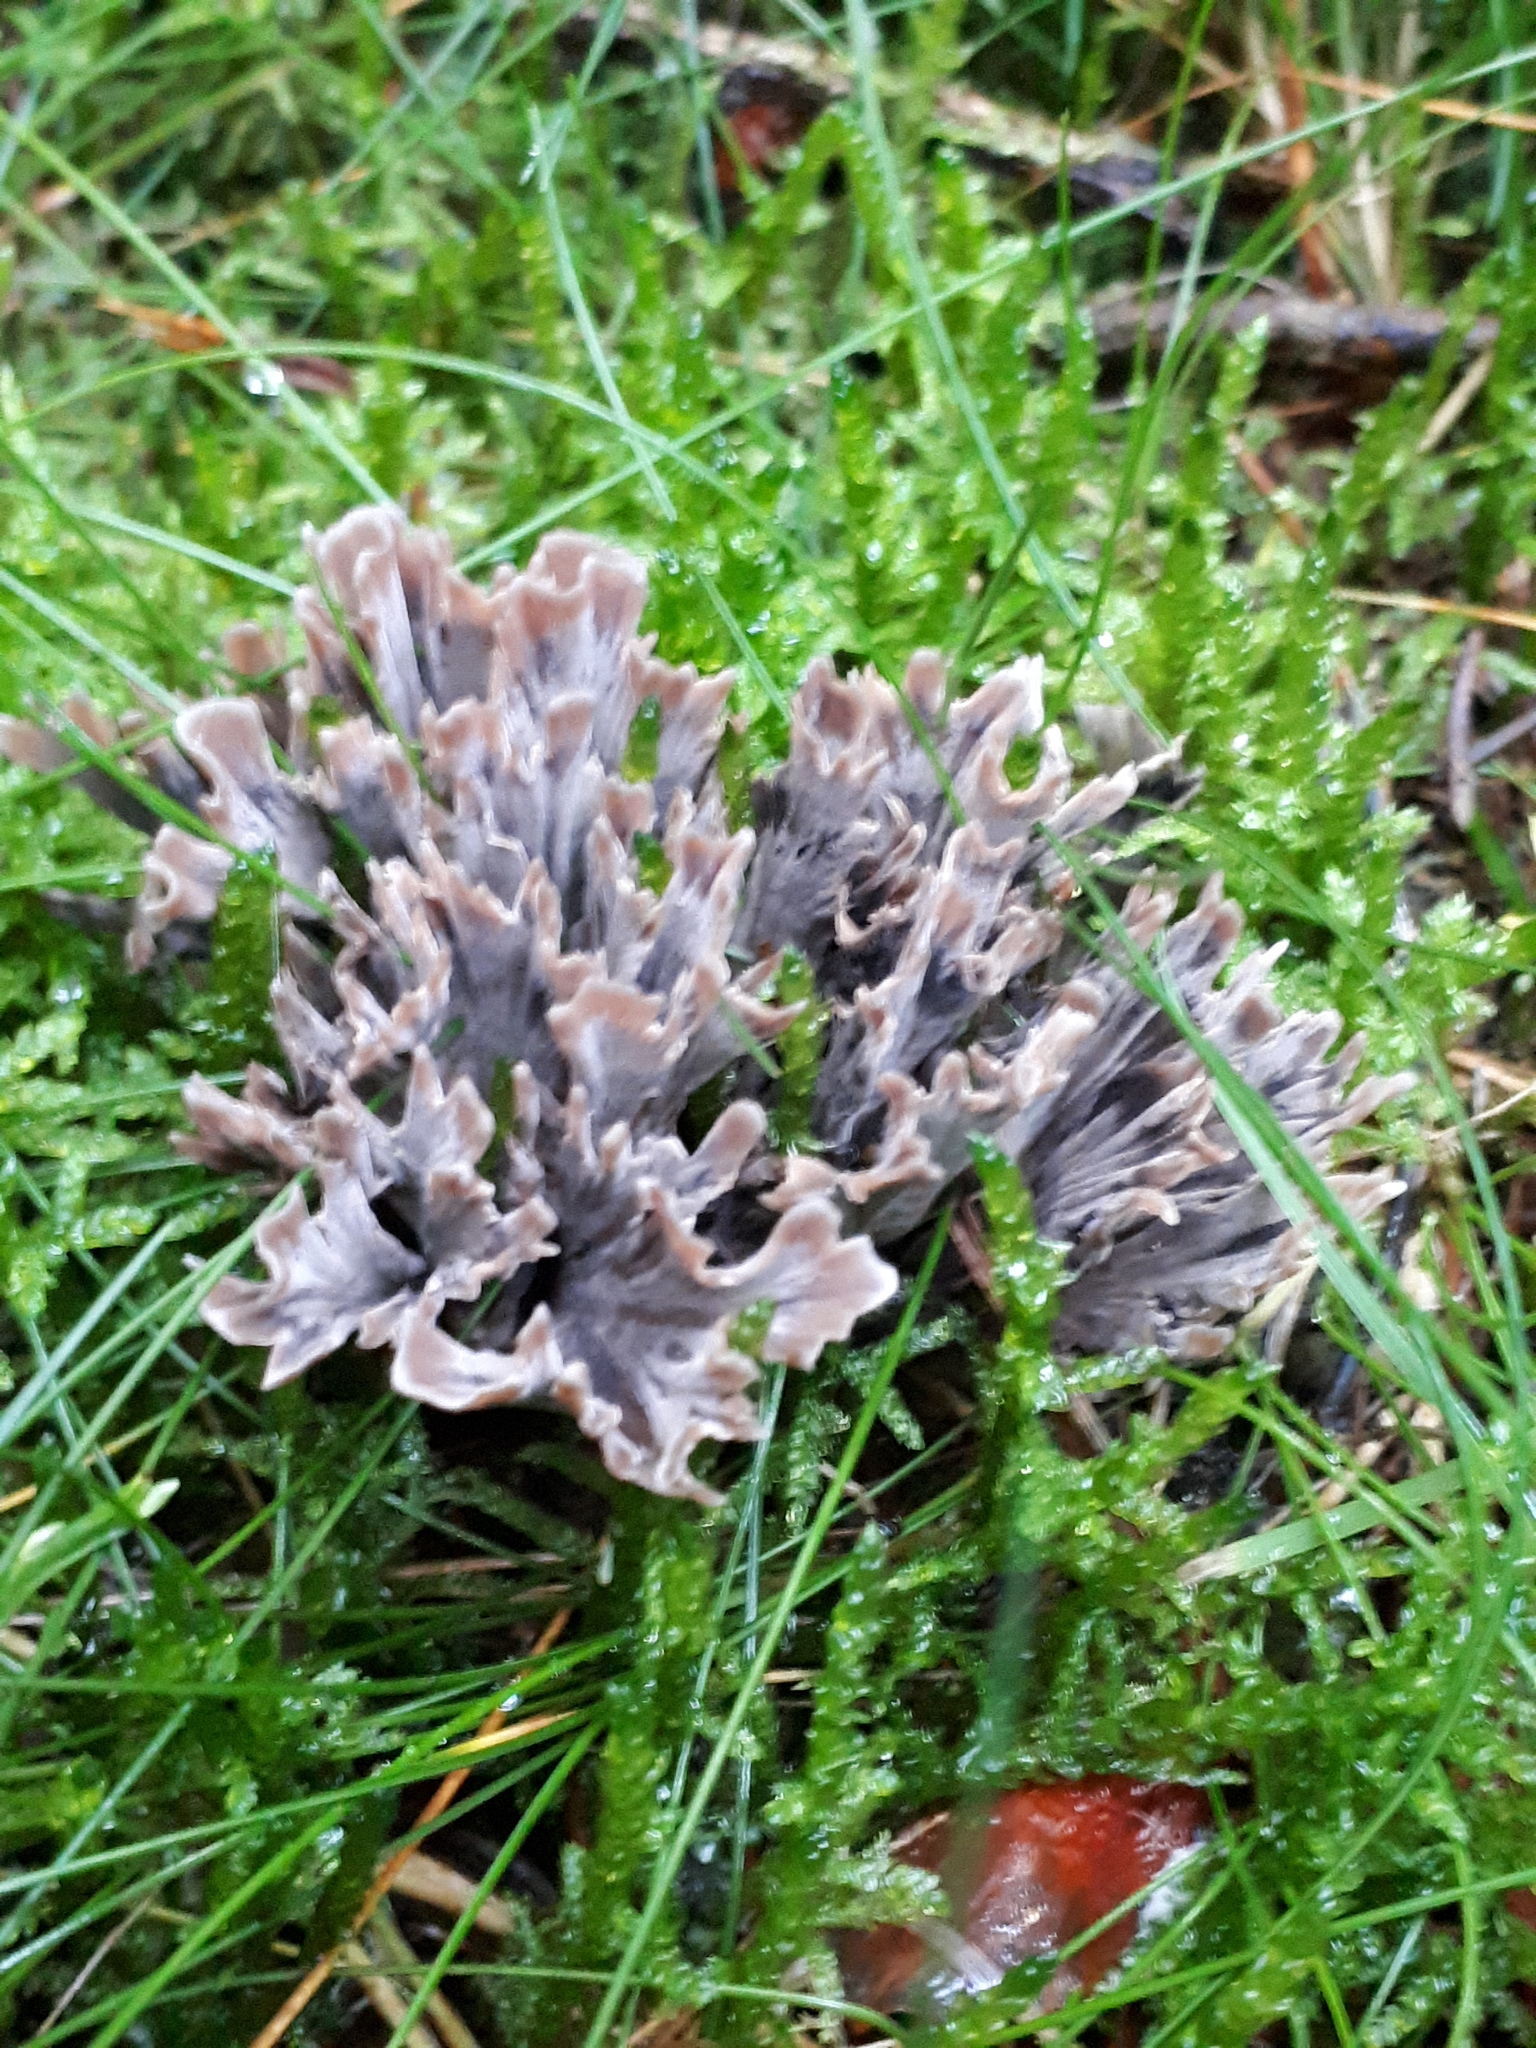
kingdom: Fungi
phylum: Basidiomycota
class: Agaricomycetes
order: Thelephorales
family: Thelephoraceae
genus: Thelephora
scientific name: Thelephora palmata
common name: Stinking earthfan
